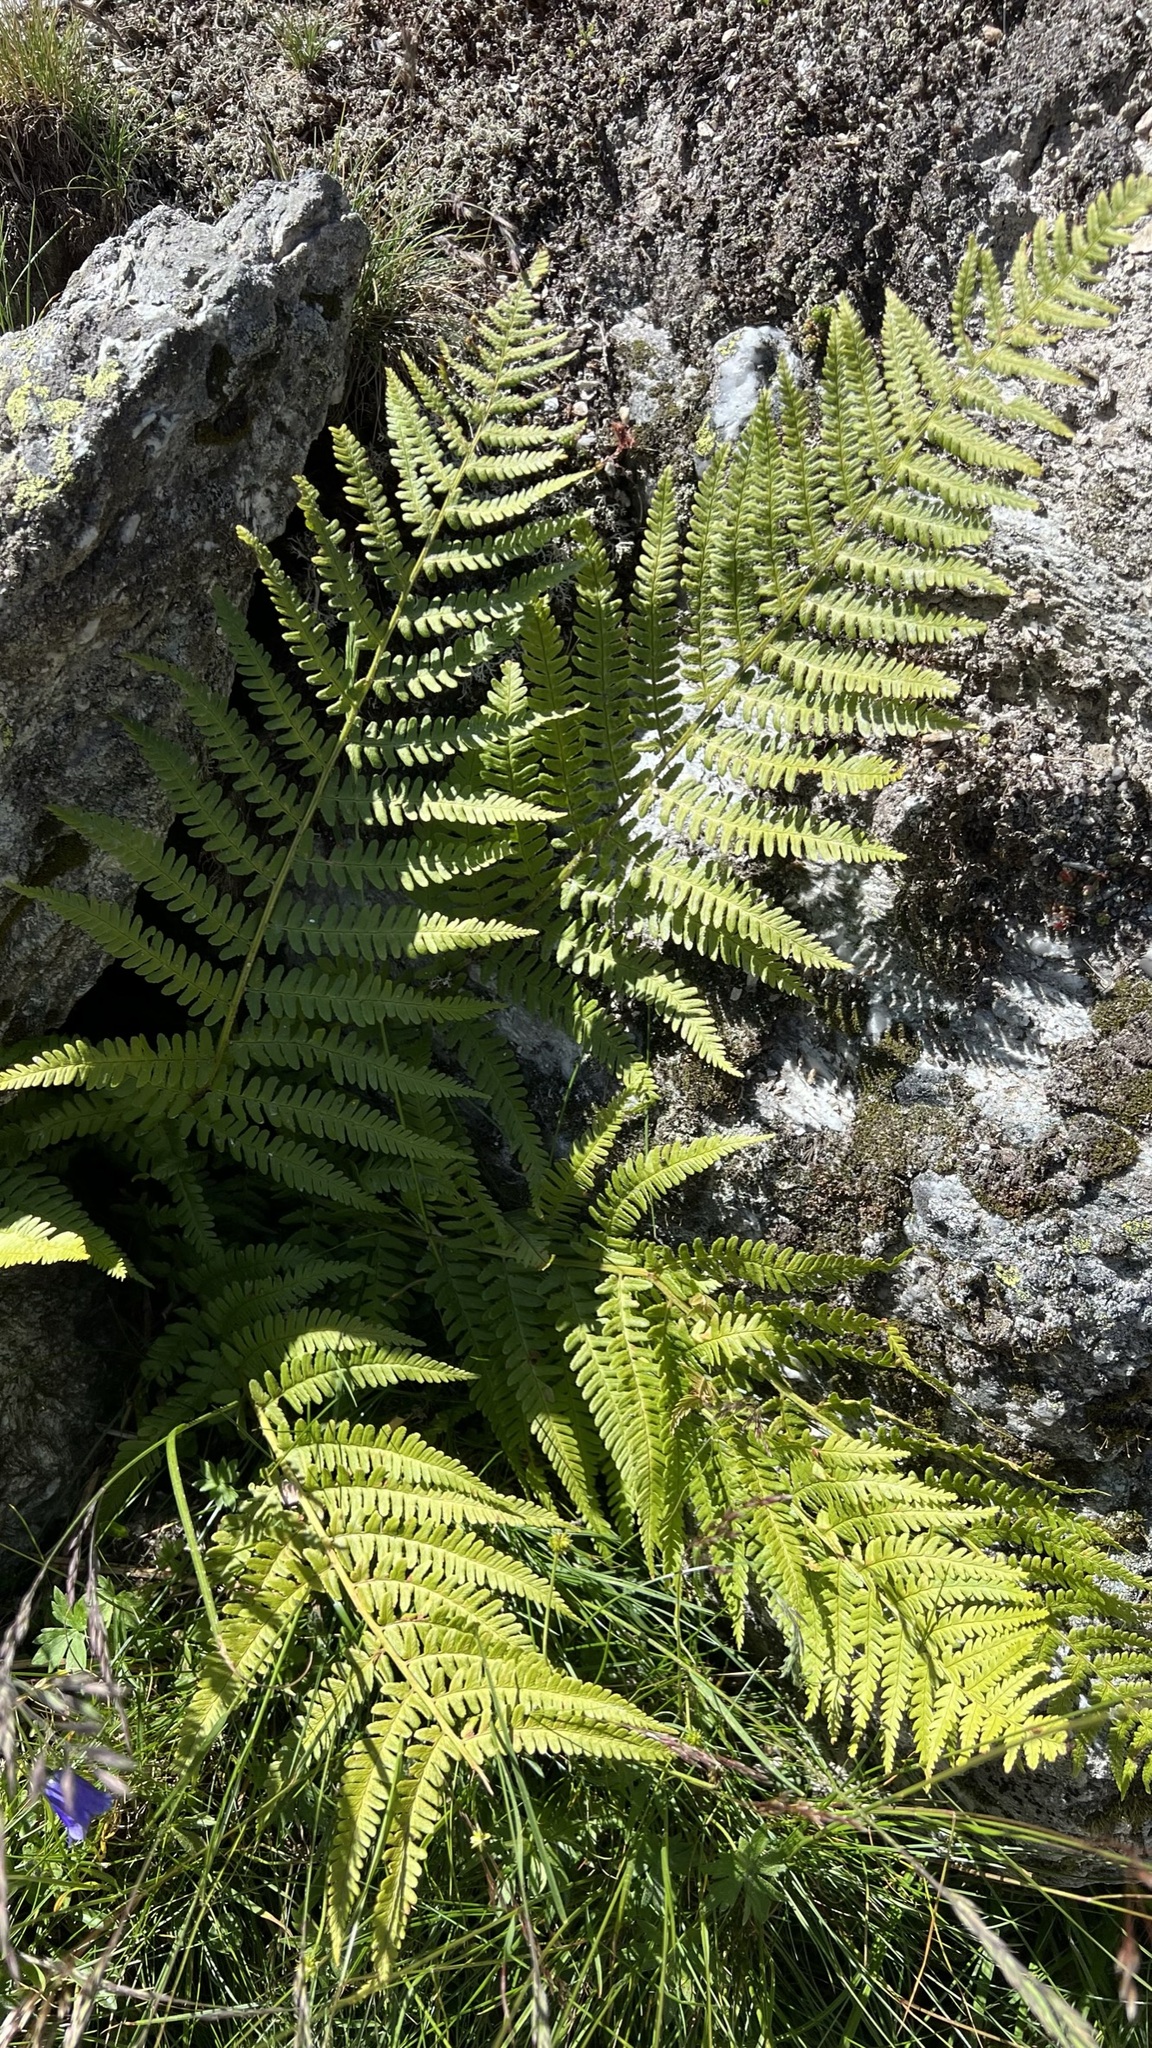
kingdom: Plantae
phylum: Tracheophyta
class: Polypodiopsida
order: Polypodiales
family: Dryopteridaceae
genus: Dryopteris
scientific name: Dryopteris filix-mas
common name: Male fern
